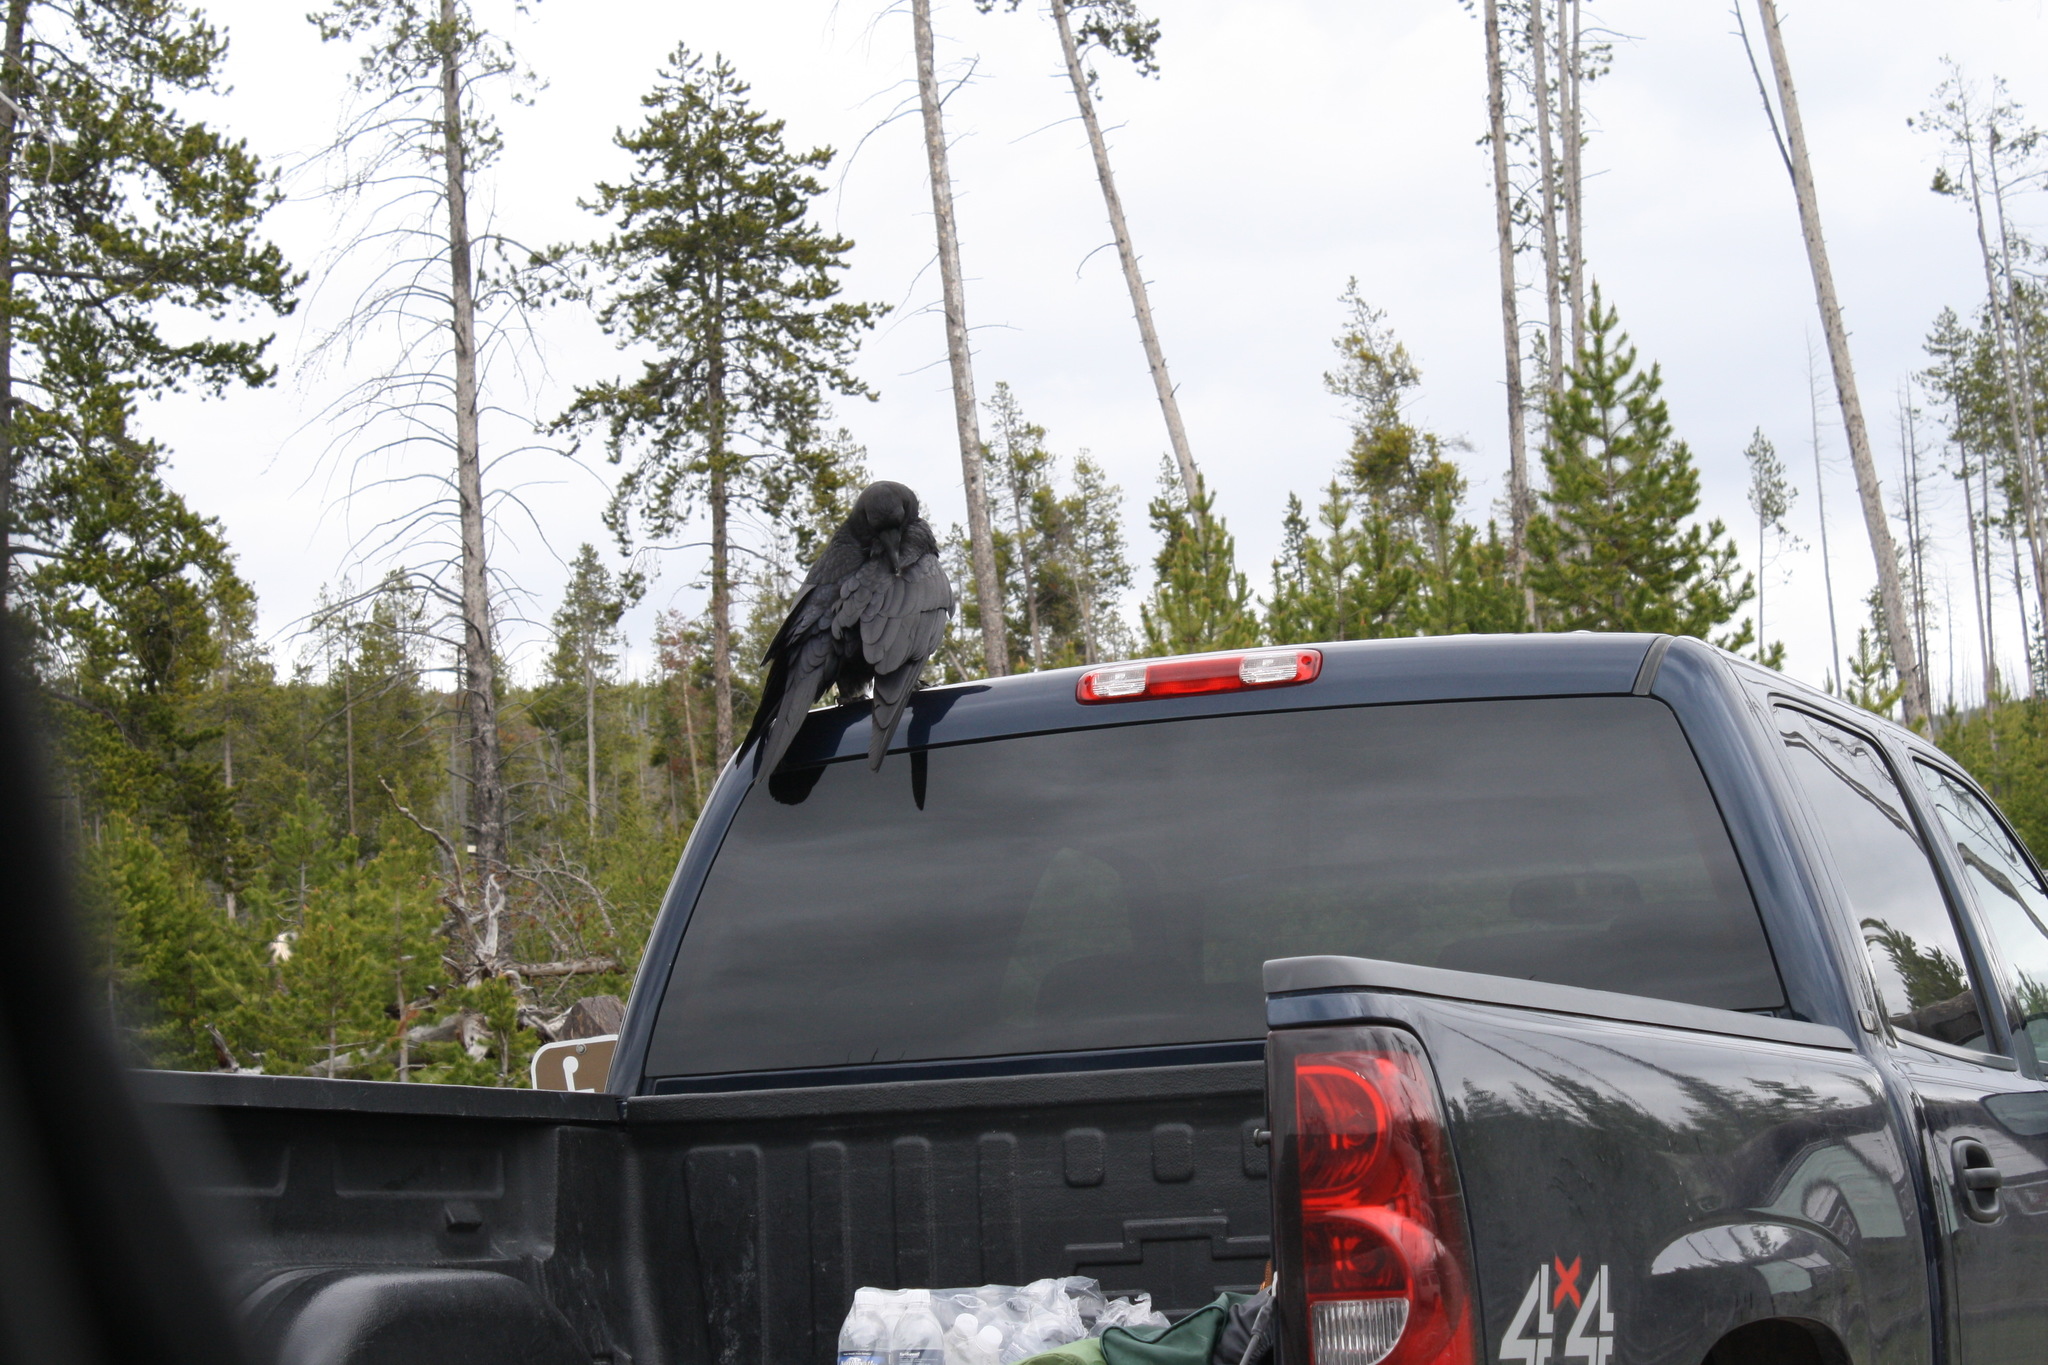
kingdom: Animalia
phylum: Chordata
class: Aves
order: Passeriformes
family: Corvidae
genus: Corvus
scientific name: Corvus corax
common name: Common raven
